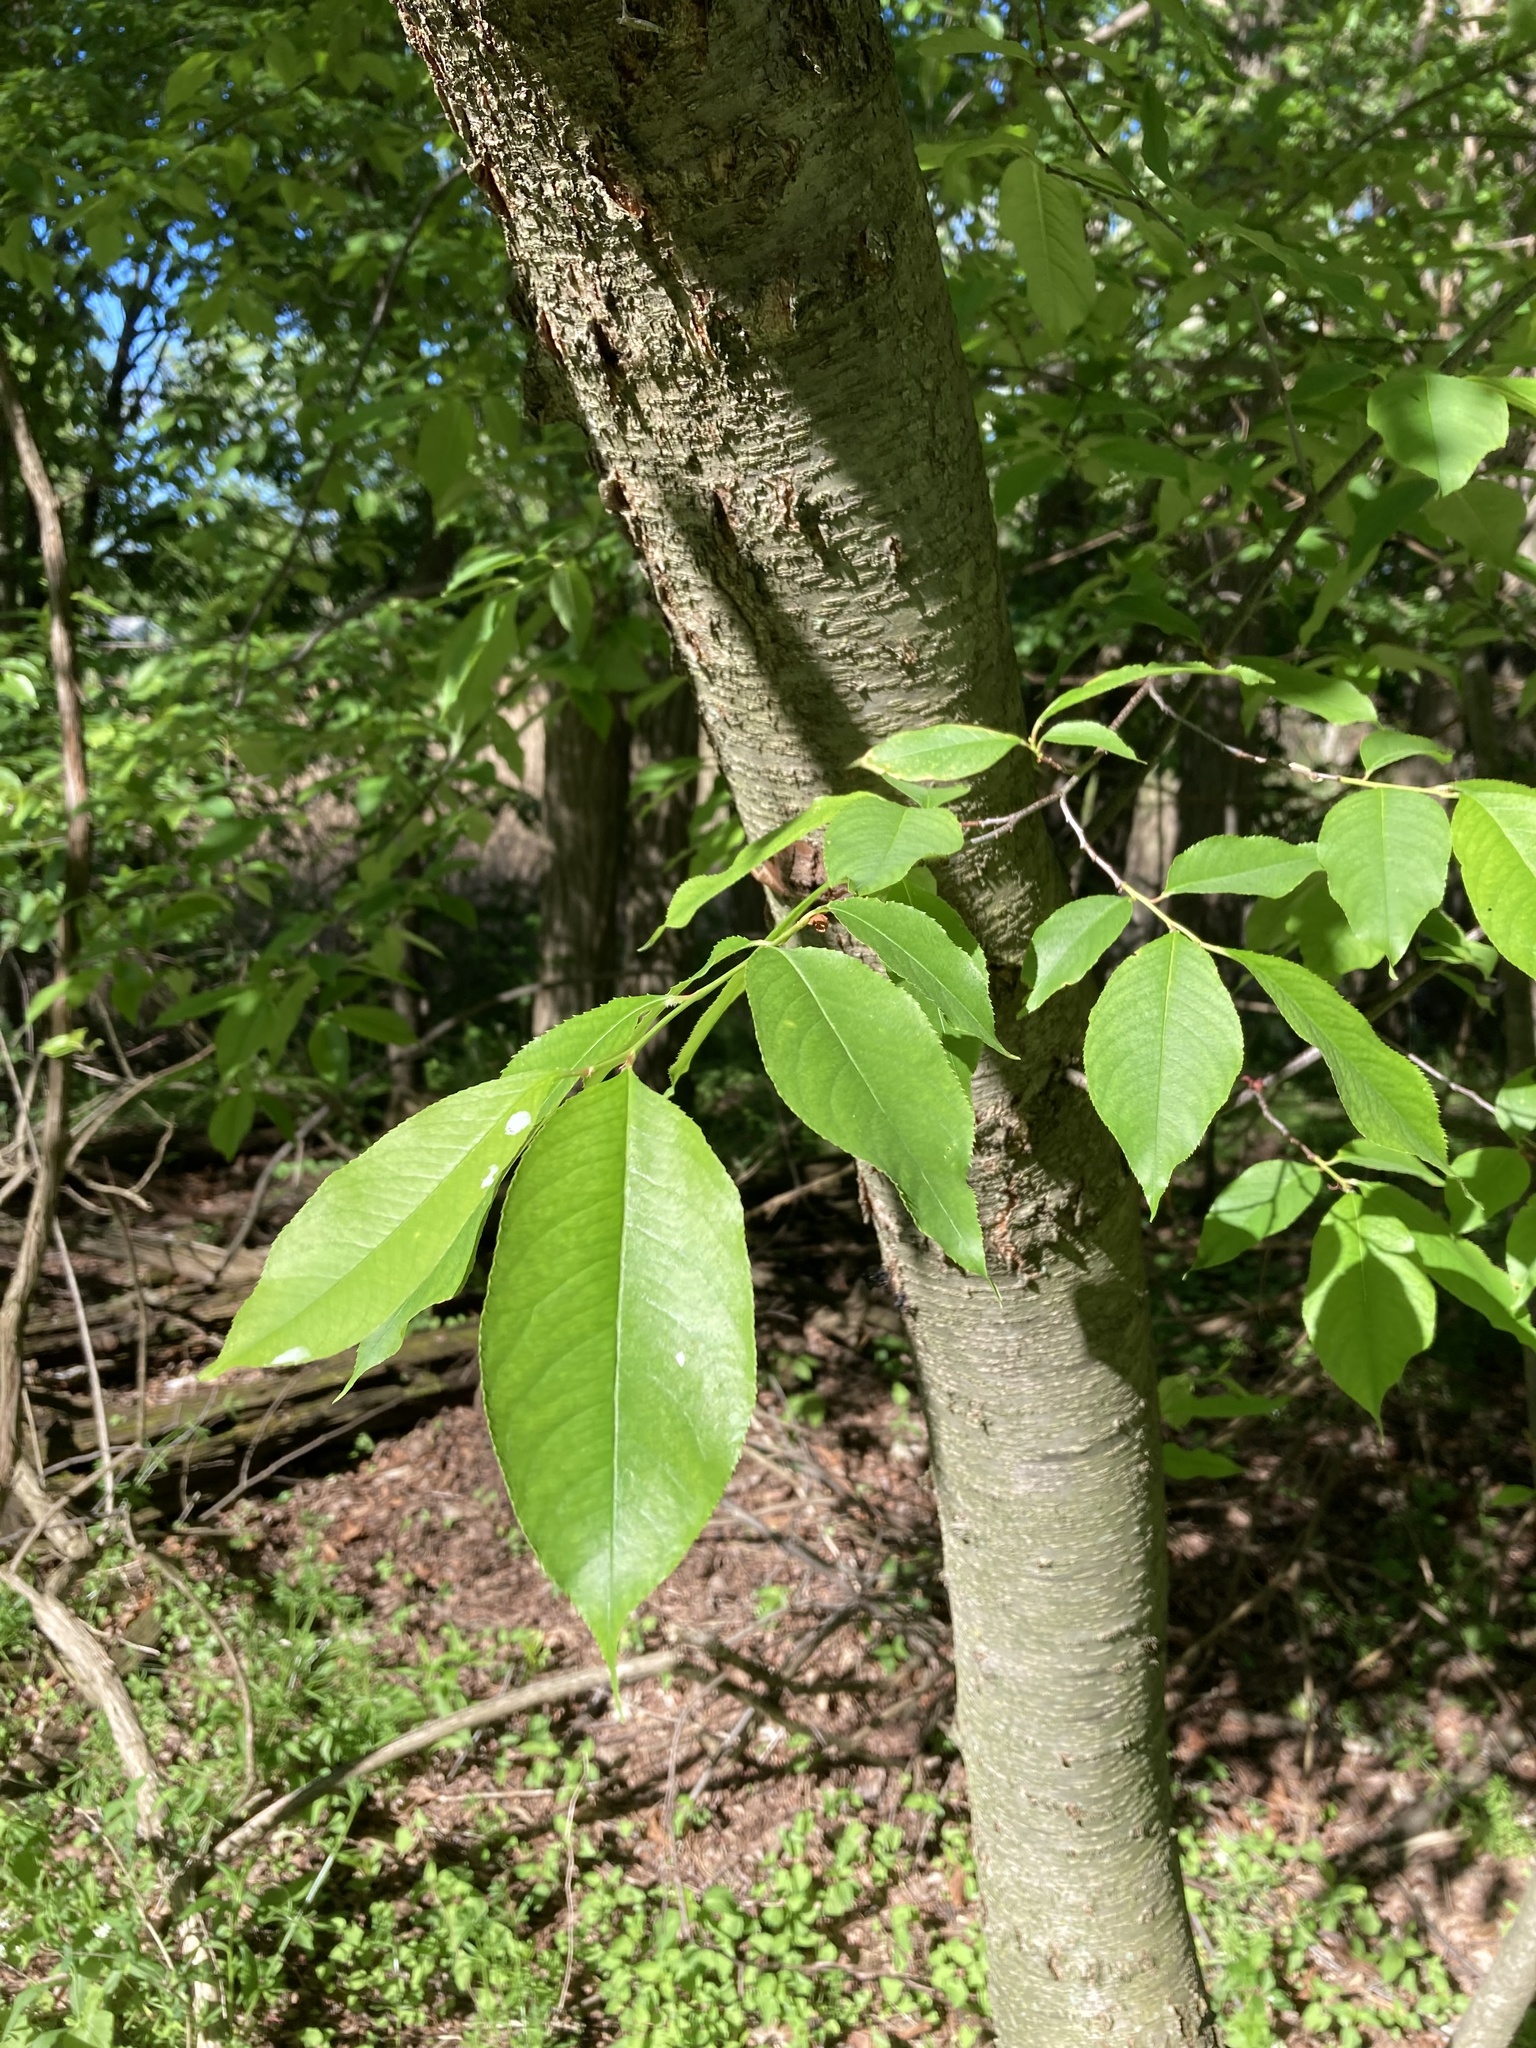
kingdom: Plantae
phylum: Tracheophyta
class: Magnoliopsida
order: Rosales
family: Rosaceae
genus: Prunus
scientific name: Prunus serotina
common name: Black cherry
